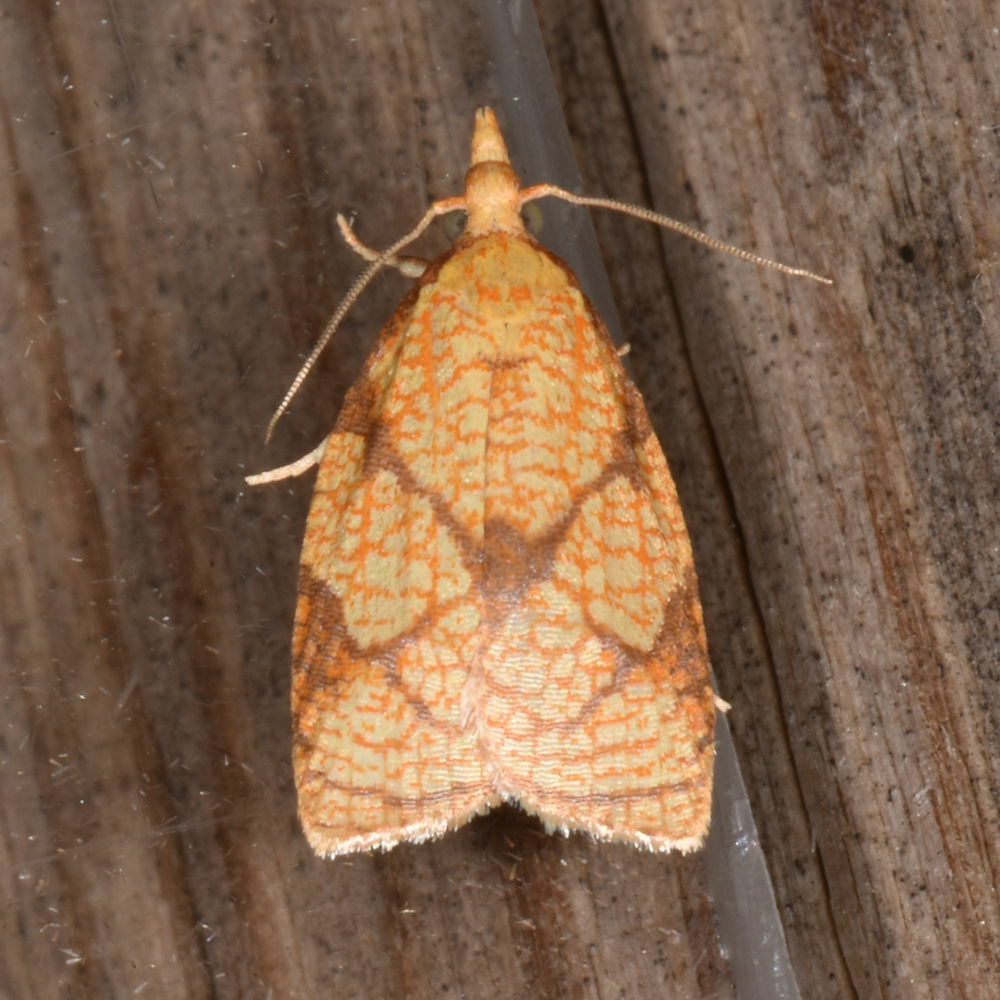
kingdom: Animalia
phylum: Arthropoda
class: Insecta
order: Lepidoptera
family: Tortricidae
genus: Cenopis
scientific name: Cenopis reticulatana
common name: Reticulated fruitworm moth
